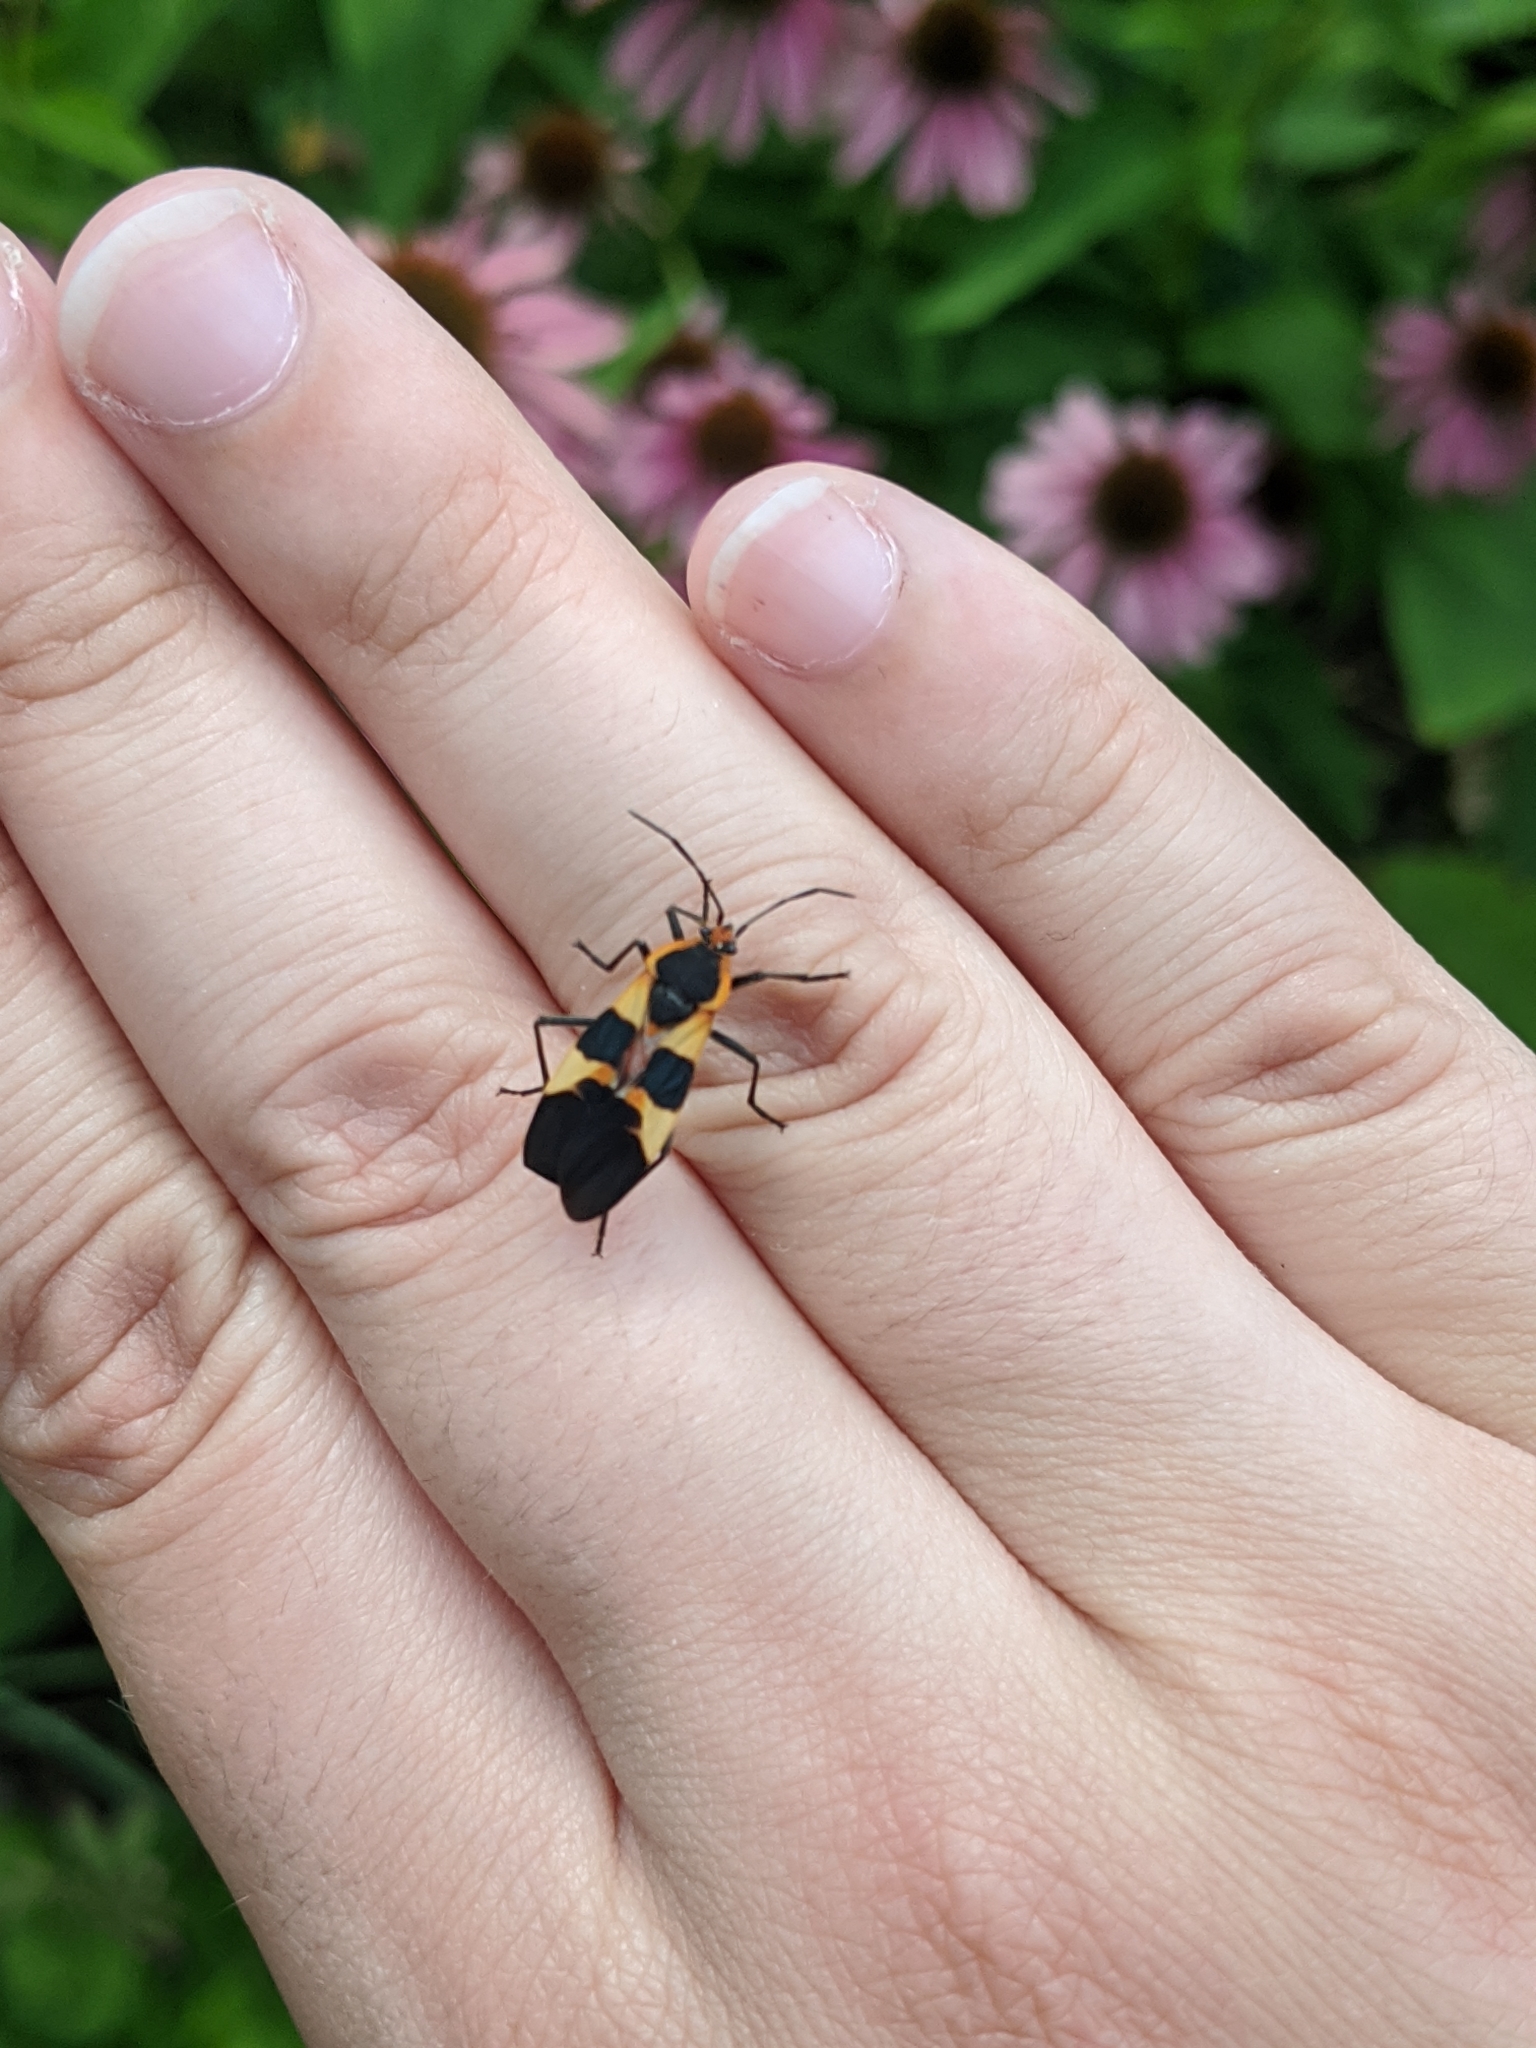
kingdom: Animalia
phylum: Arthropoda
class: Insecta
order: Hemiptera
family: Lygaeidae
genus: Oncopeltus
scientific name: Oncopeltus fasciatus
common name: Large milkweed bug
